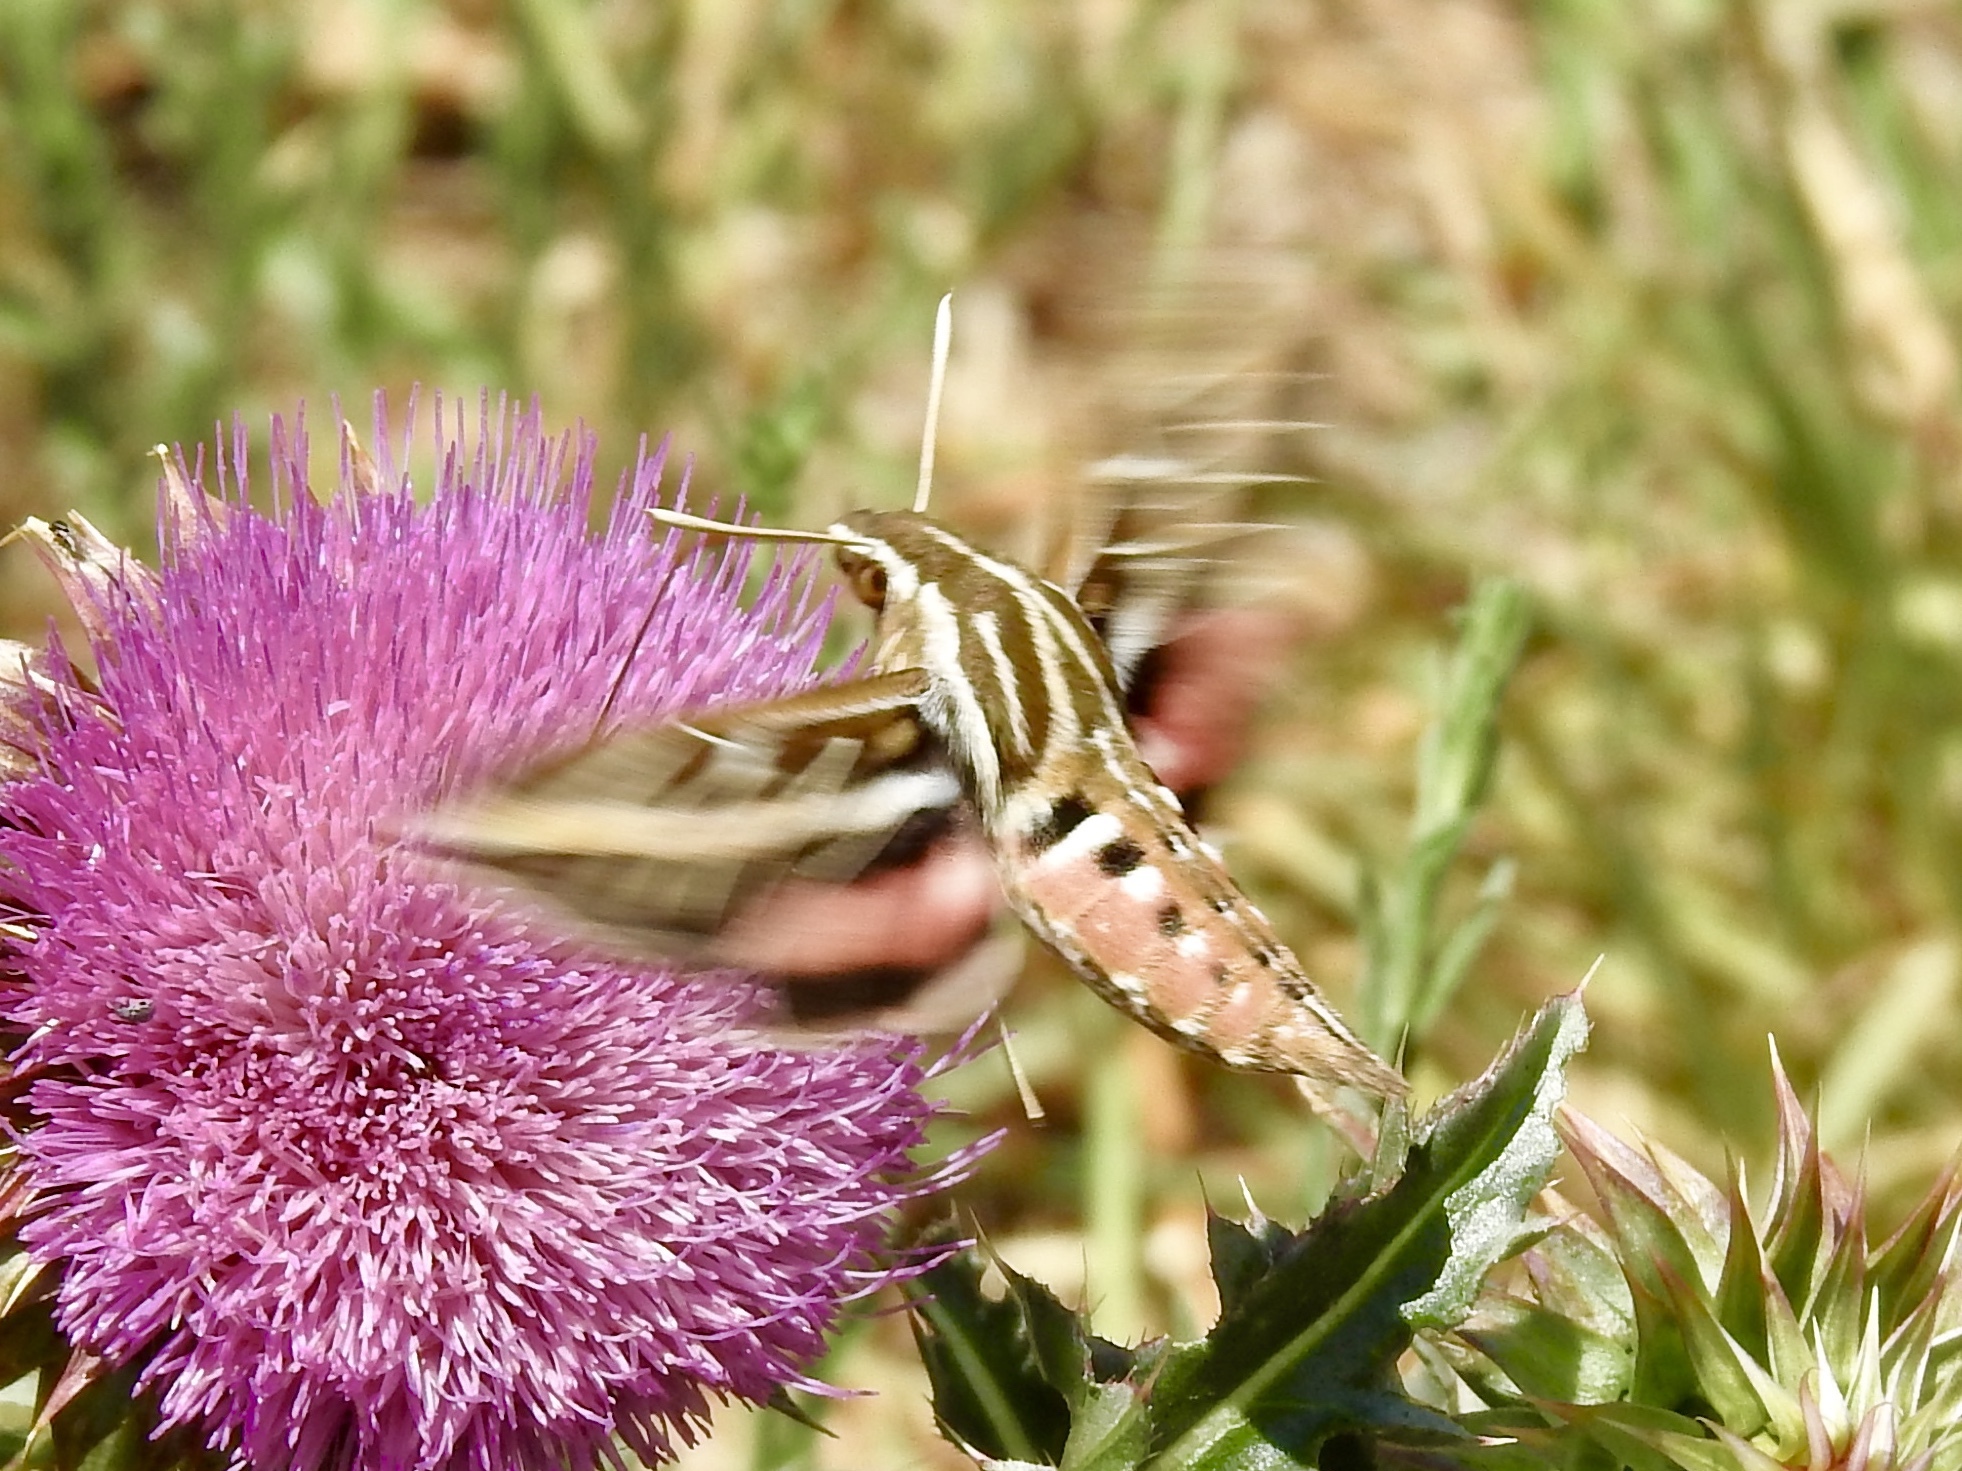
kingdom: Animalia
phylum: Arthropoda
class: Insecta
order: Lepidoptera
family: Sphingidae
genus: Hyles
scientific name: Hyles lineata
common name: White-lined sphinx
